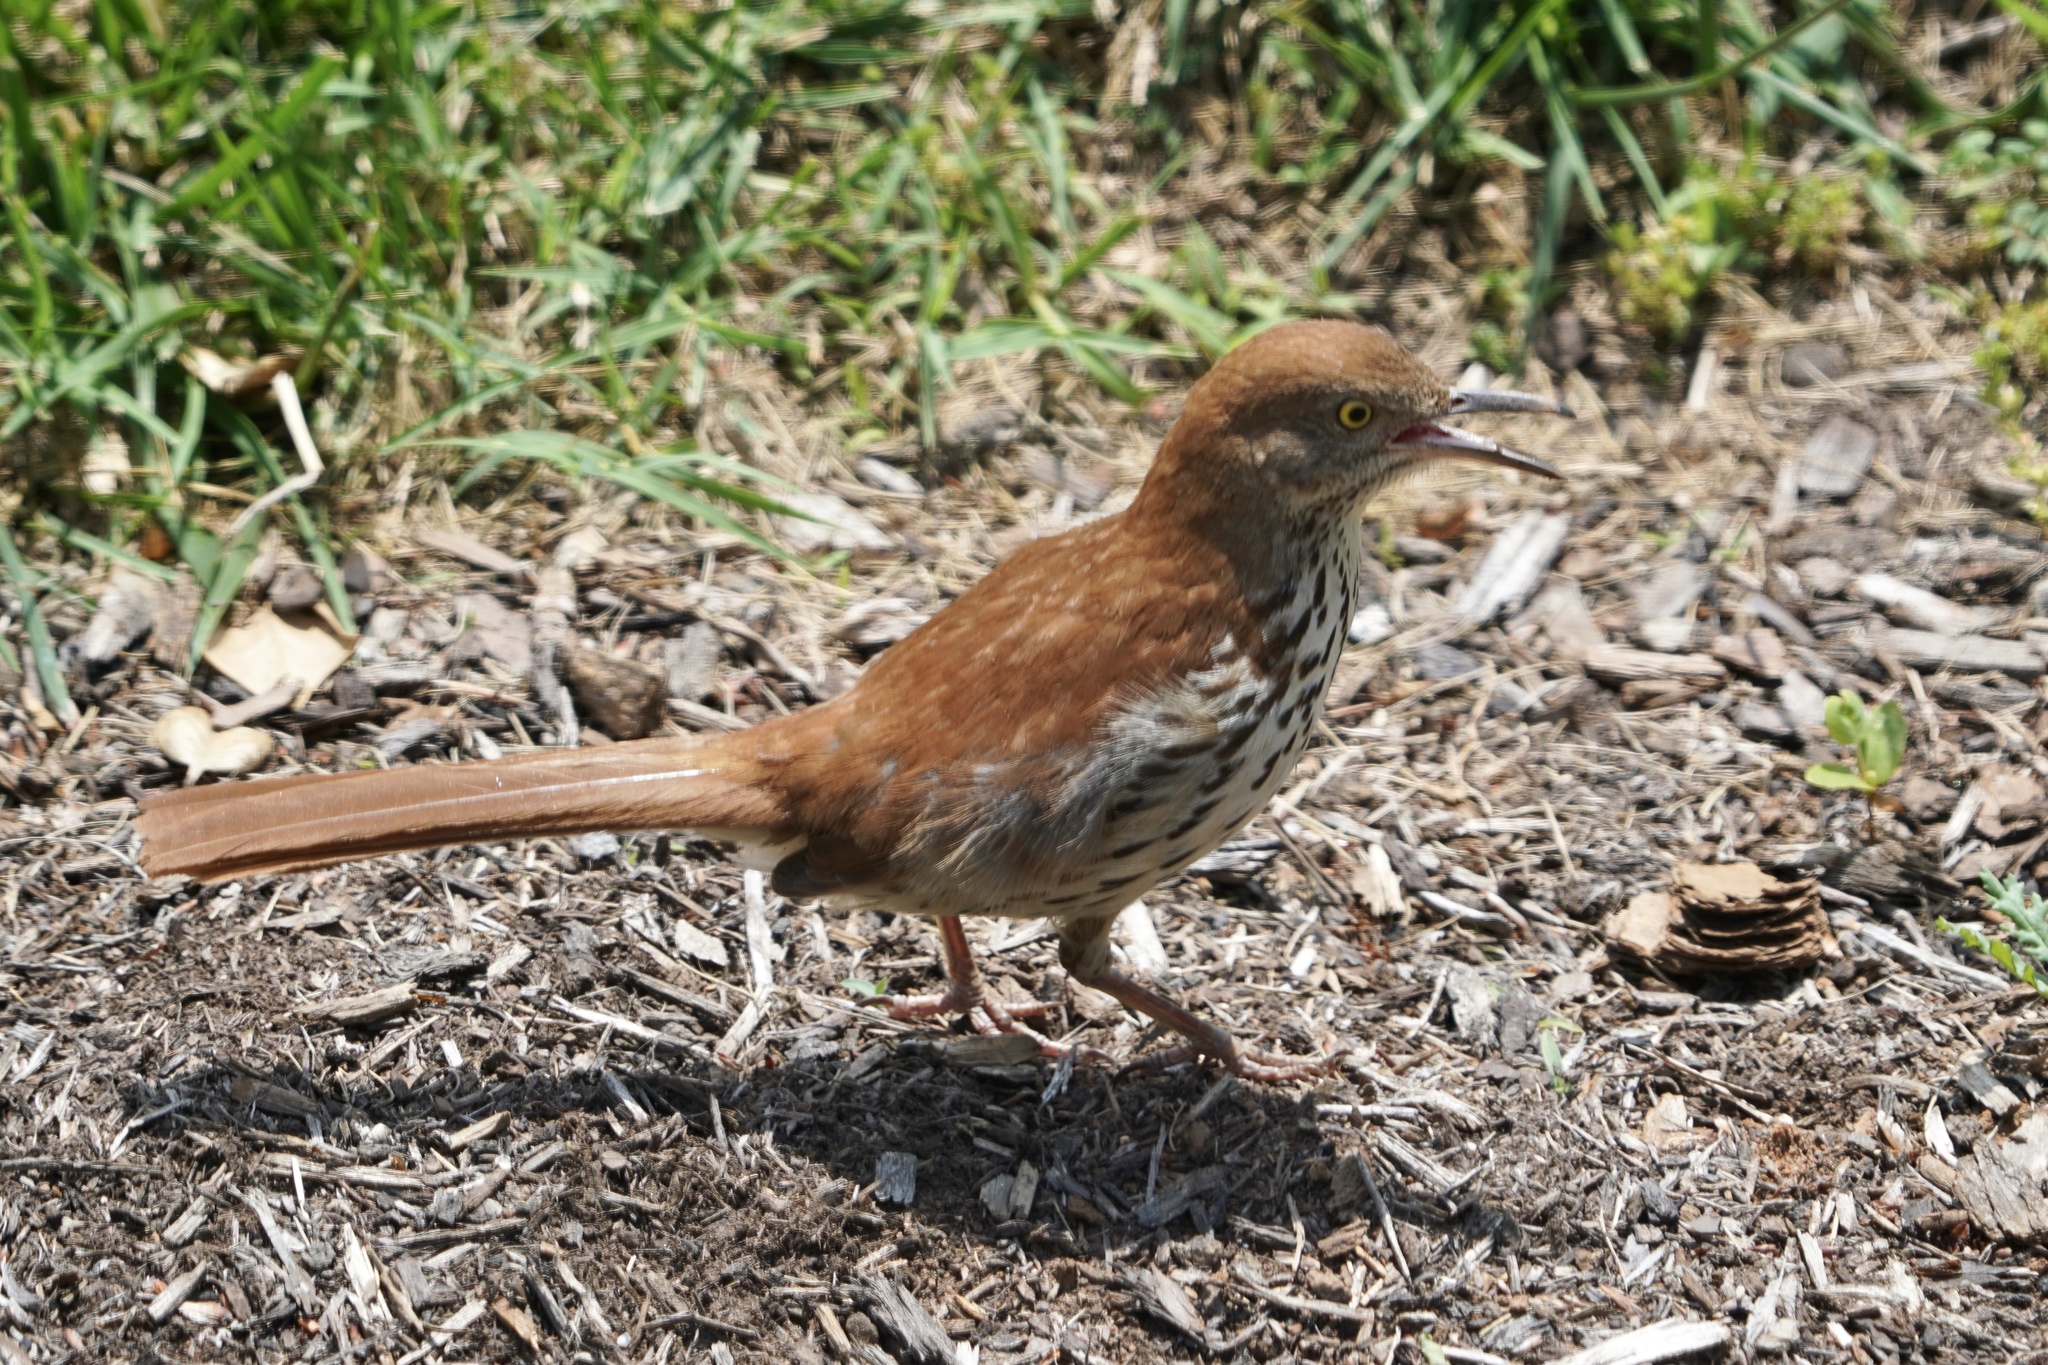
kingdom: Animalia
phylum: Chordata
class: Aves
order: Passeriformes
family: Mimidae
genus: Toxostoma
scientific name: Toxostoma rufum
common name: Brown thrasher
